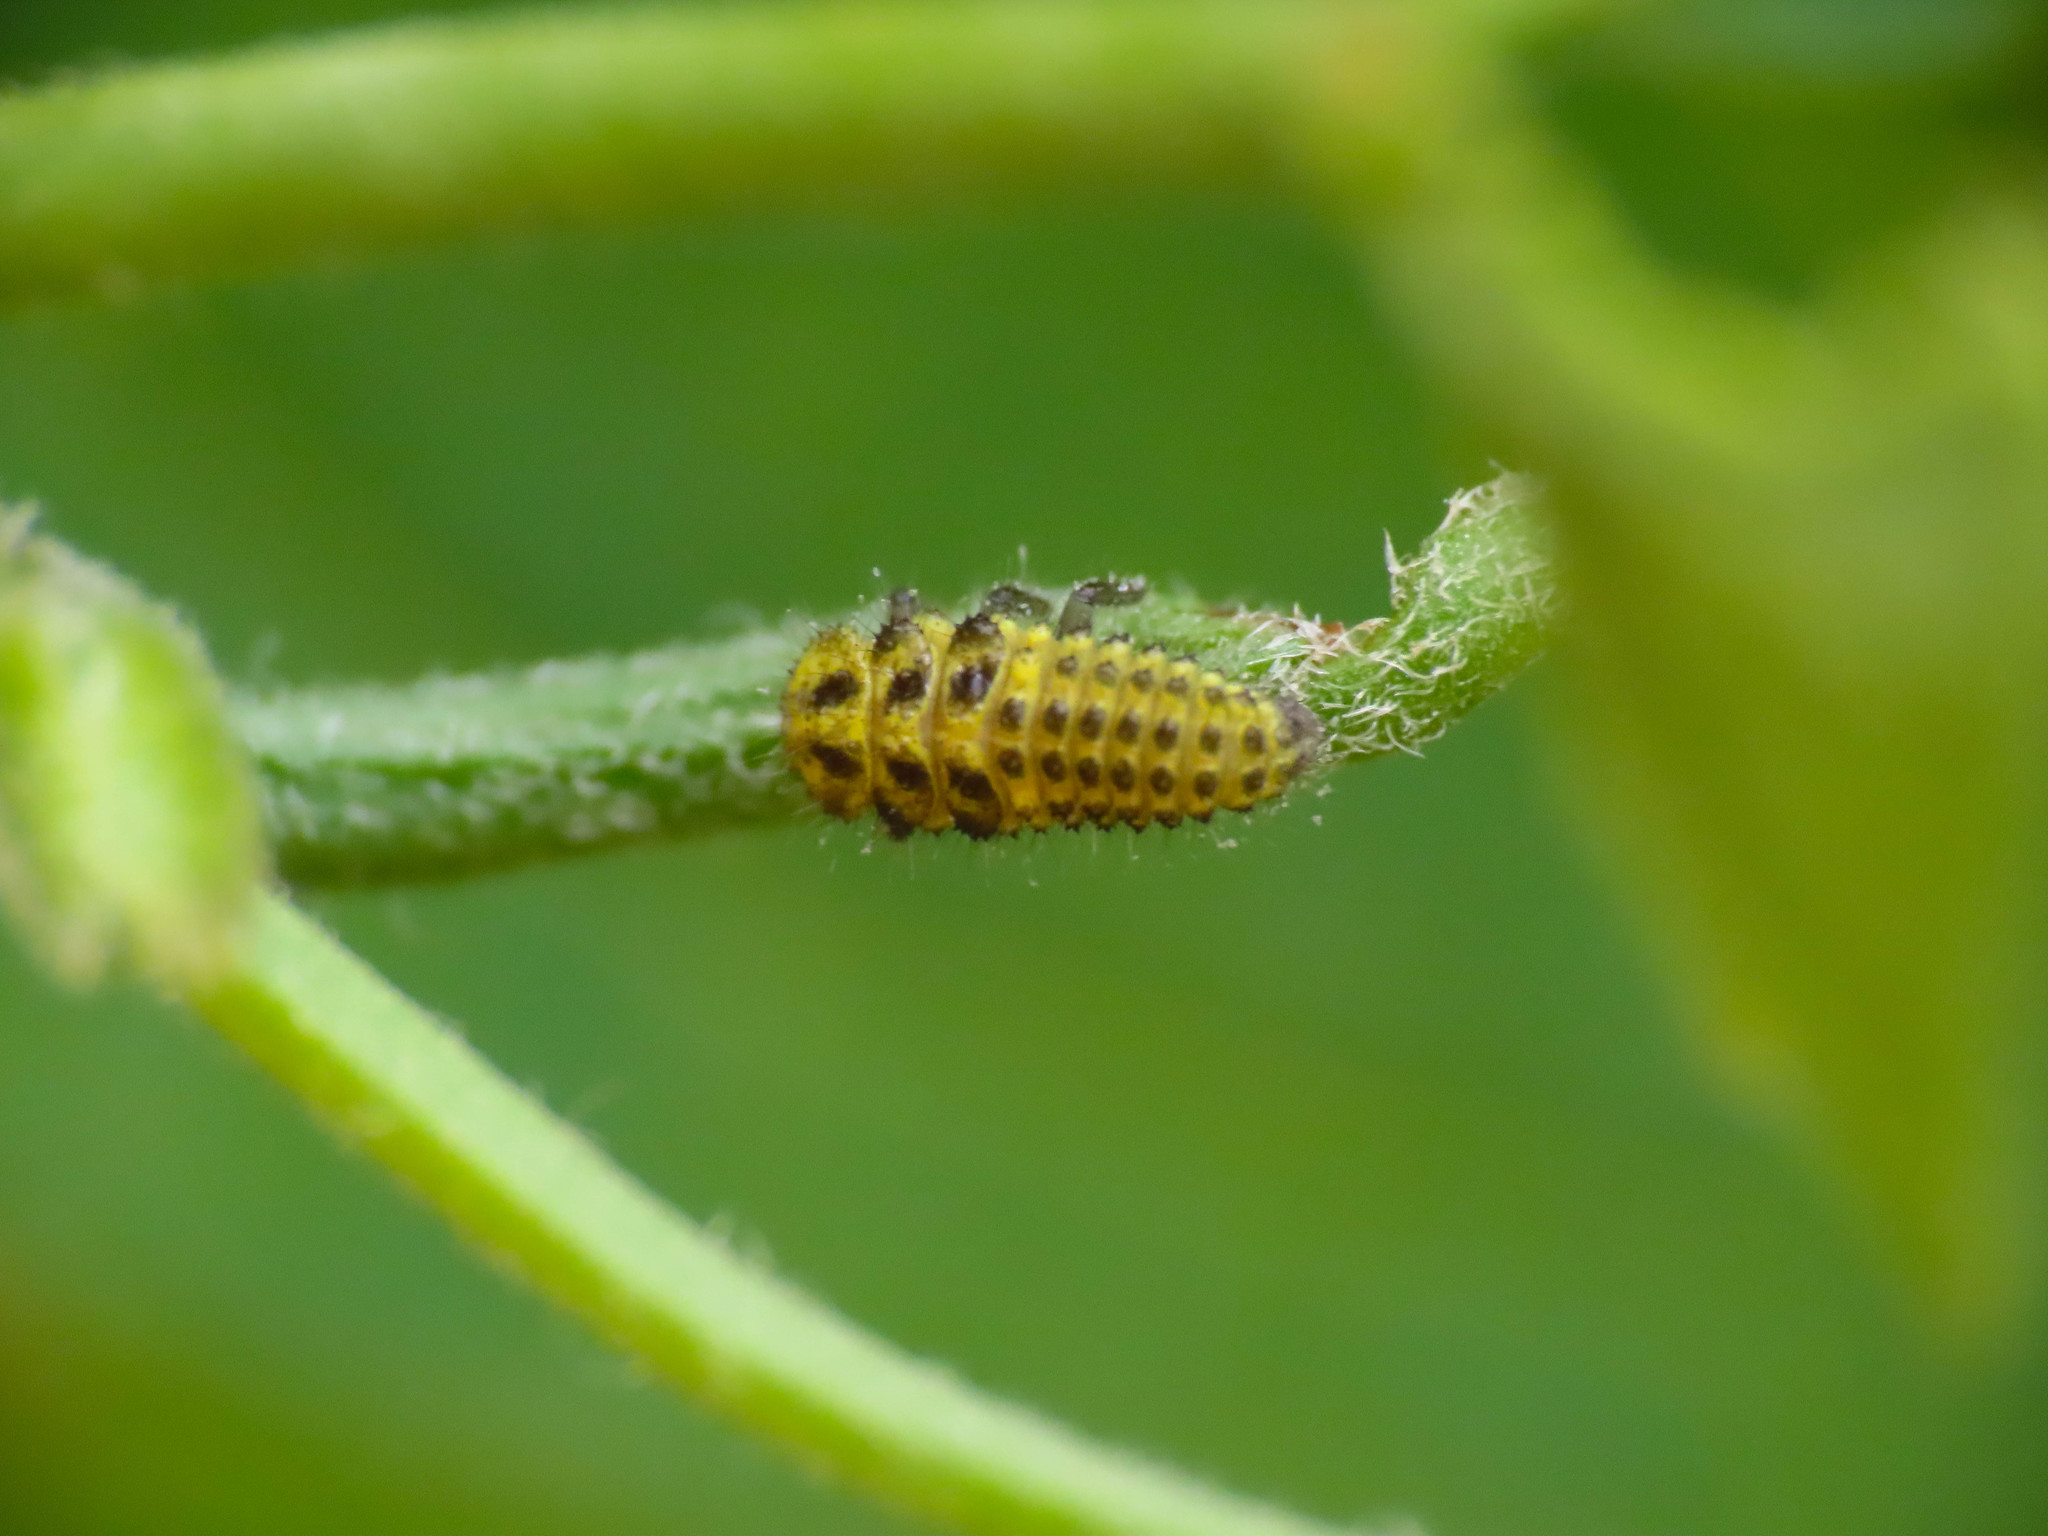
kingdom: Animalia
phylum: Arthropoda
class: Insecta
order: Coleoptera
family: Coccinellidae
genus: Psyllobora
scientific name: Psyllobora vigintiduopunctata
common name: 22-spot ladybird
